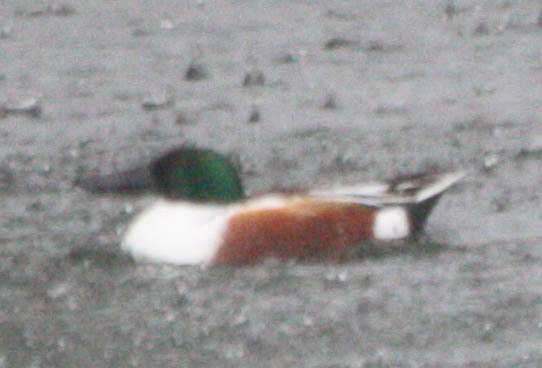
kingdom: Animalia
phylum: Chordata
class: Aves
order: Anseriformes
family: Anatidae
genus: Spatula
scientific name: Spatula clypeata
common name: Northern shoveler
